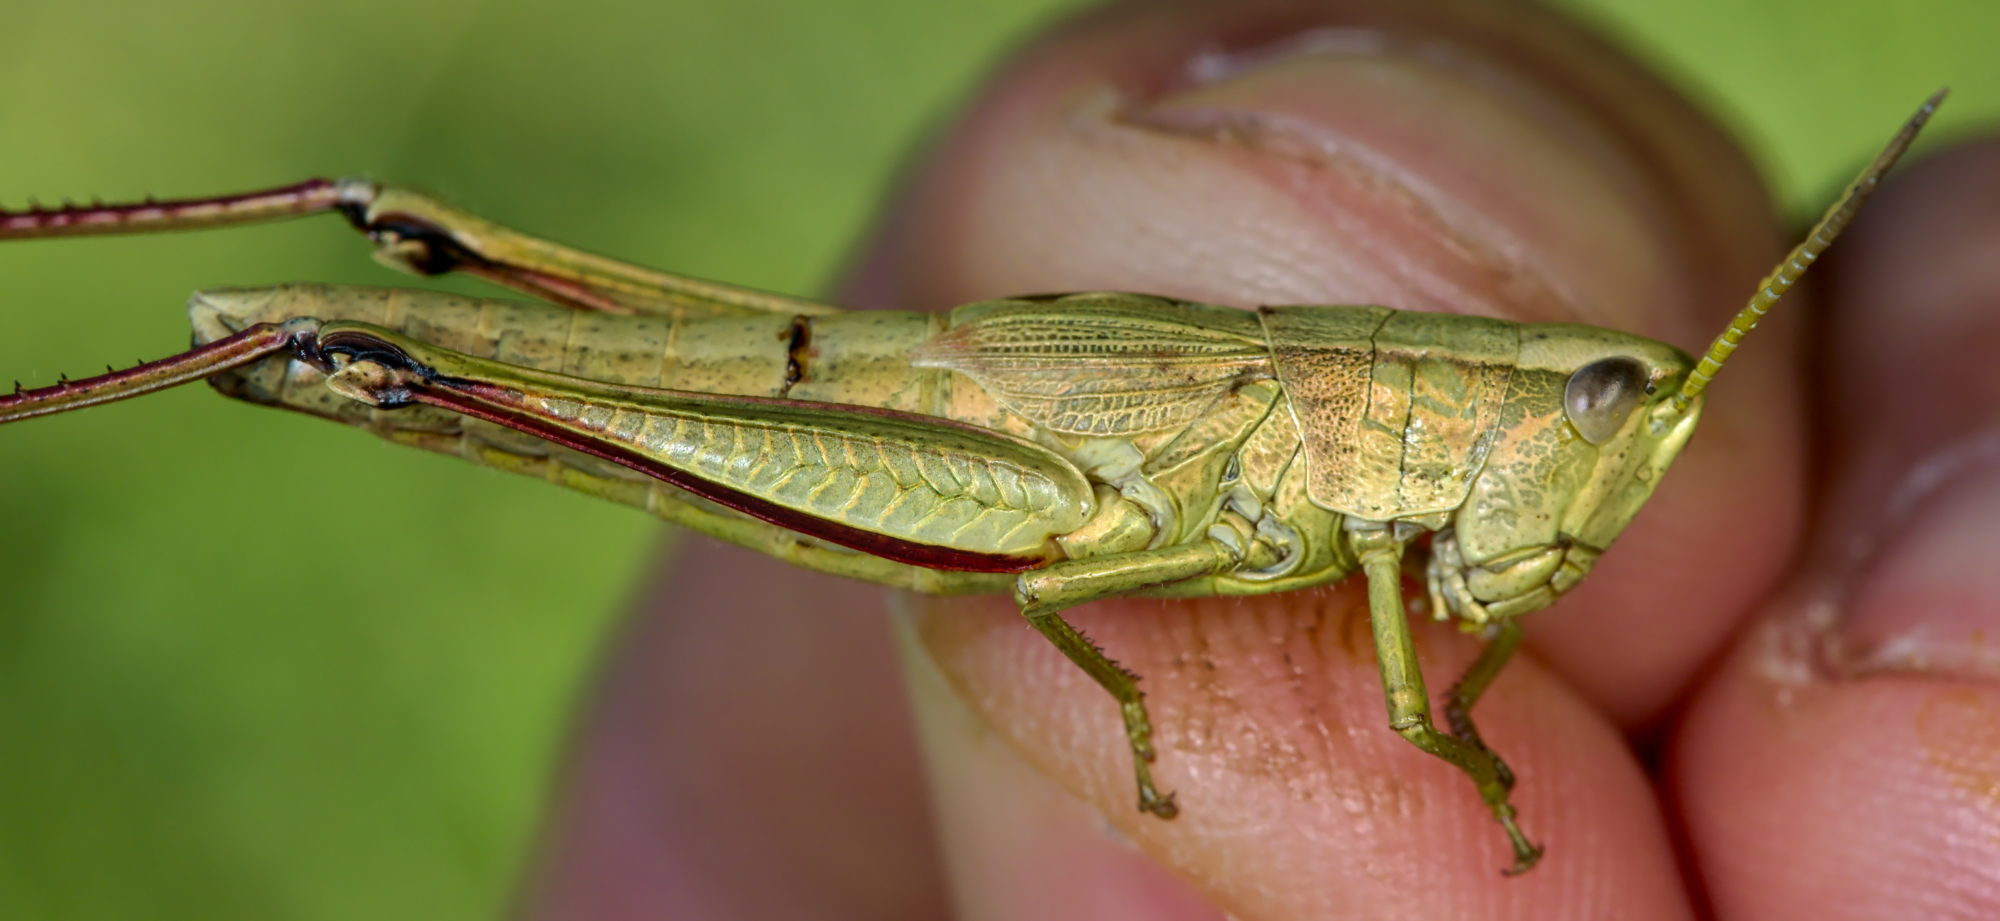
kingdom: Animalia
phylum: Arthropoda
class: Insecta
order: Orthoptera
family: Acrididae
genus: Chrysochraon
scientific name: Chrysochraon dispar
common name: Large gold grasshopper
